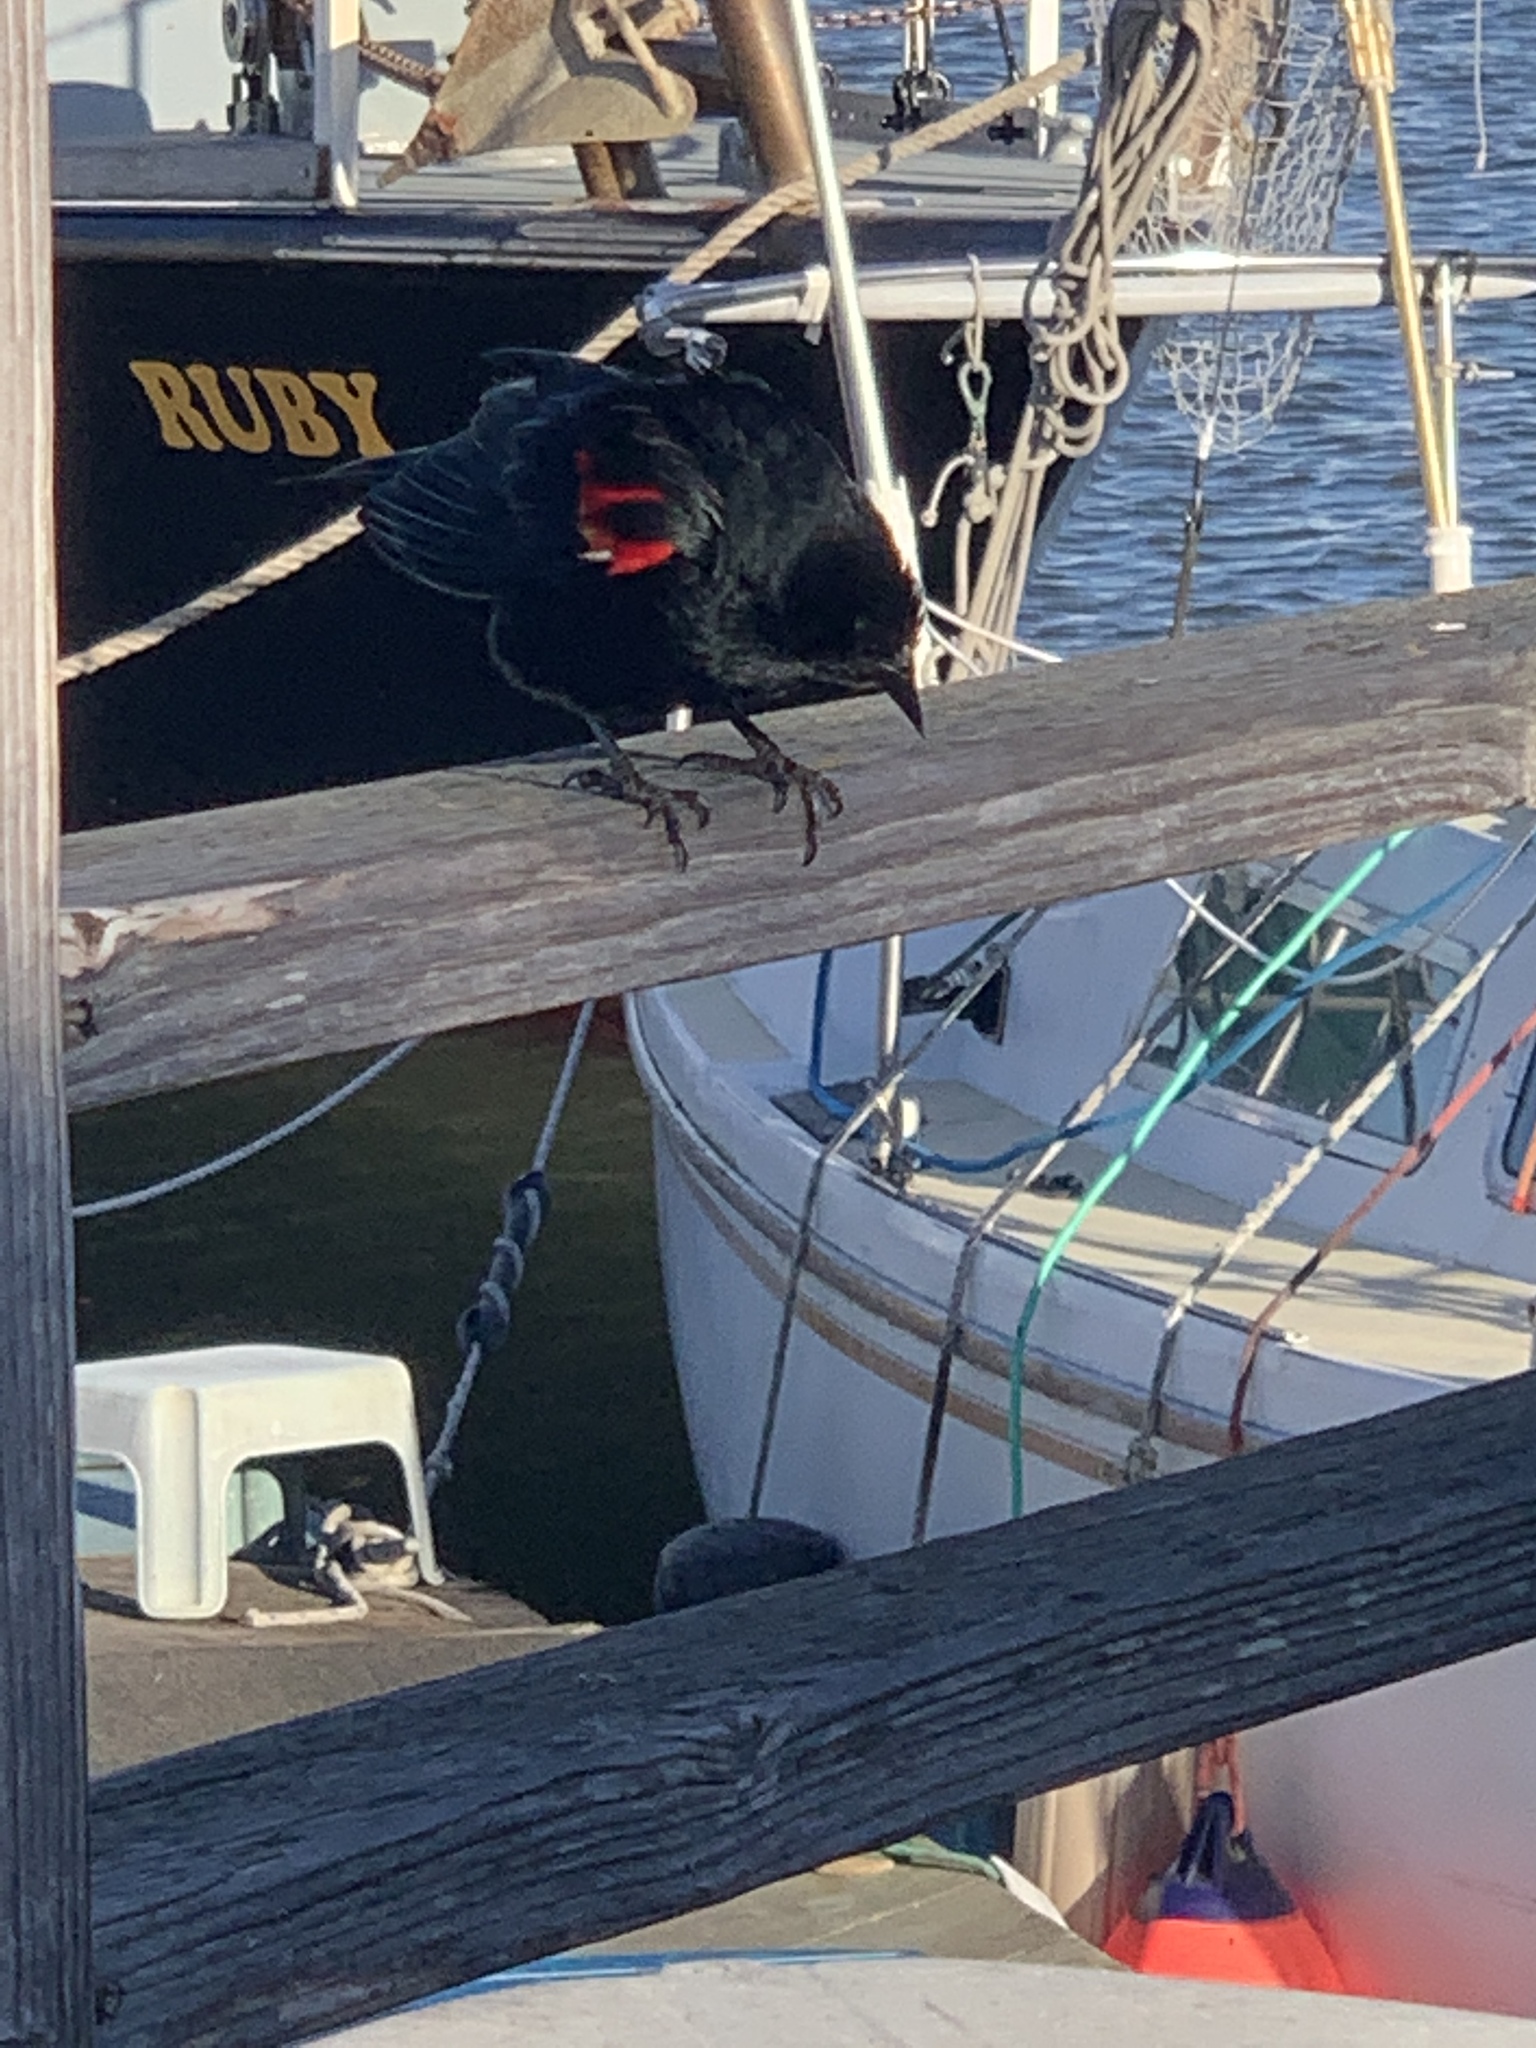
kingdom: Animalia
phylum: Chordata
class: Aves
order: Passeriformes
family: Icteridae
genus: Agelaius
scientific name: Agelaius phoeniceus
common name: Red-winged blackbird
